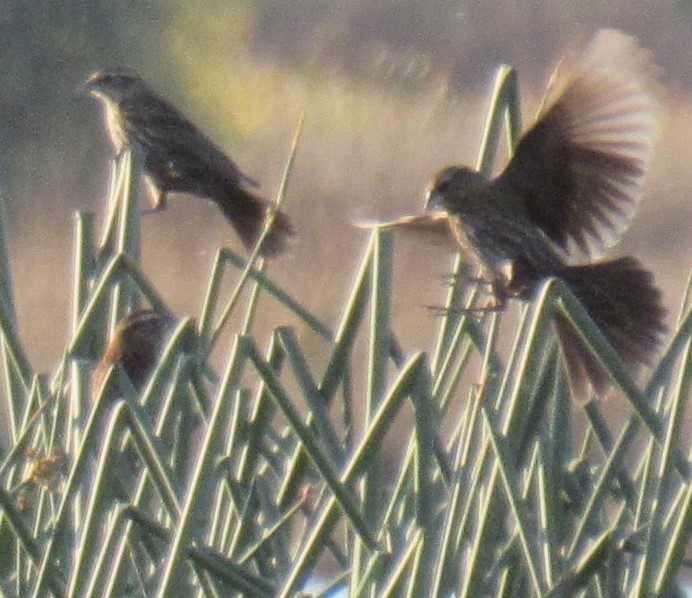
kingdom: Animalia
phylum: Chordata
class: Aves
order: Passeriformes
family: Icteridae
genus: Agelaius
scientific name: Agelaius phoeniceus
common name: Red-winged blackbird
